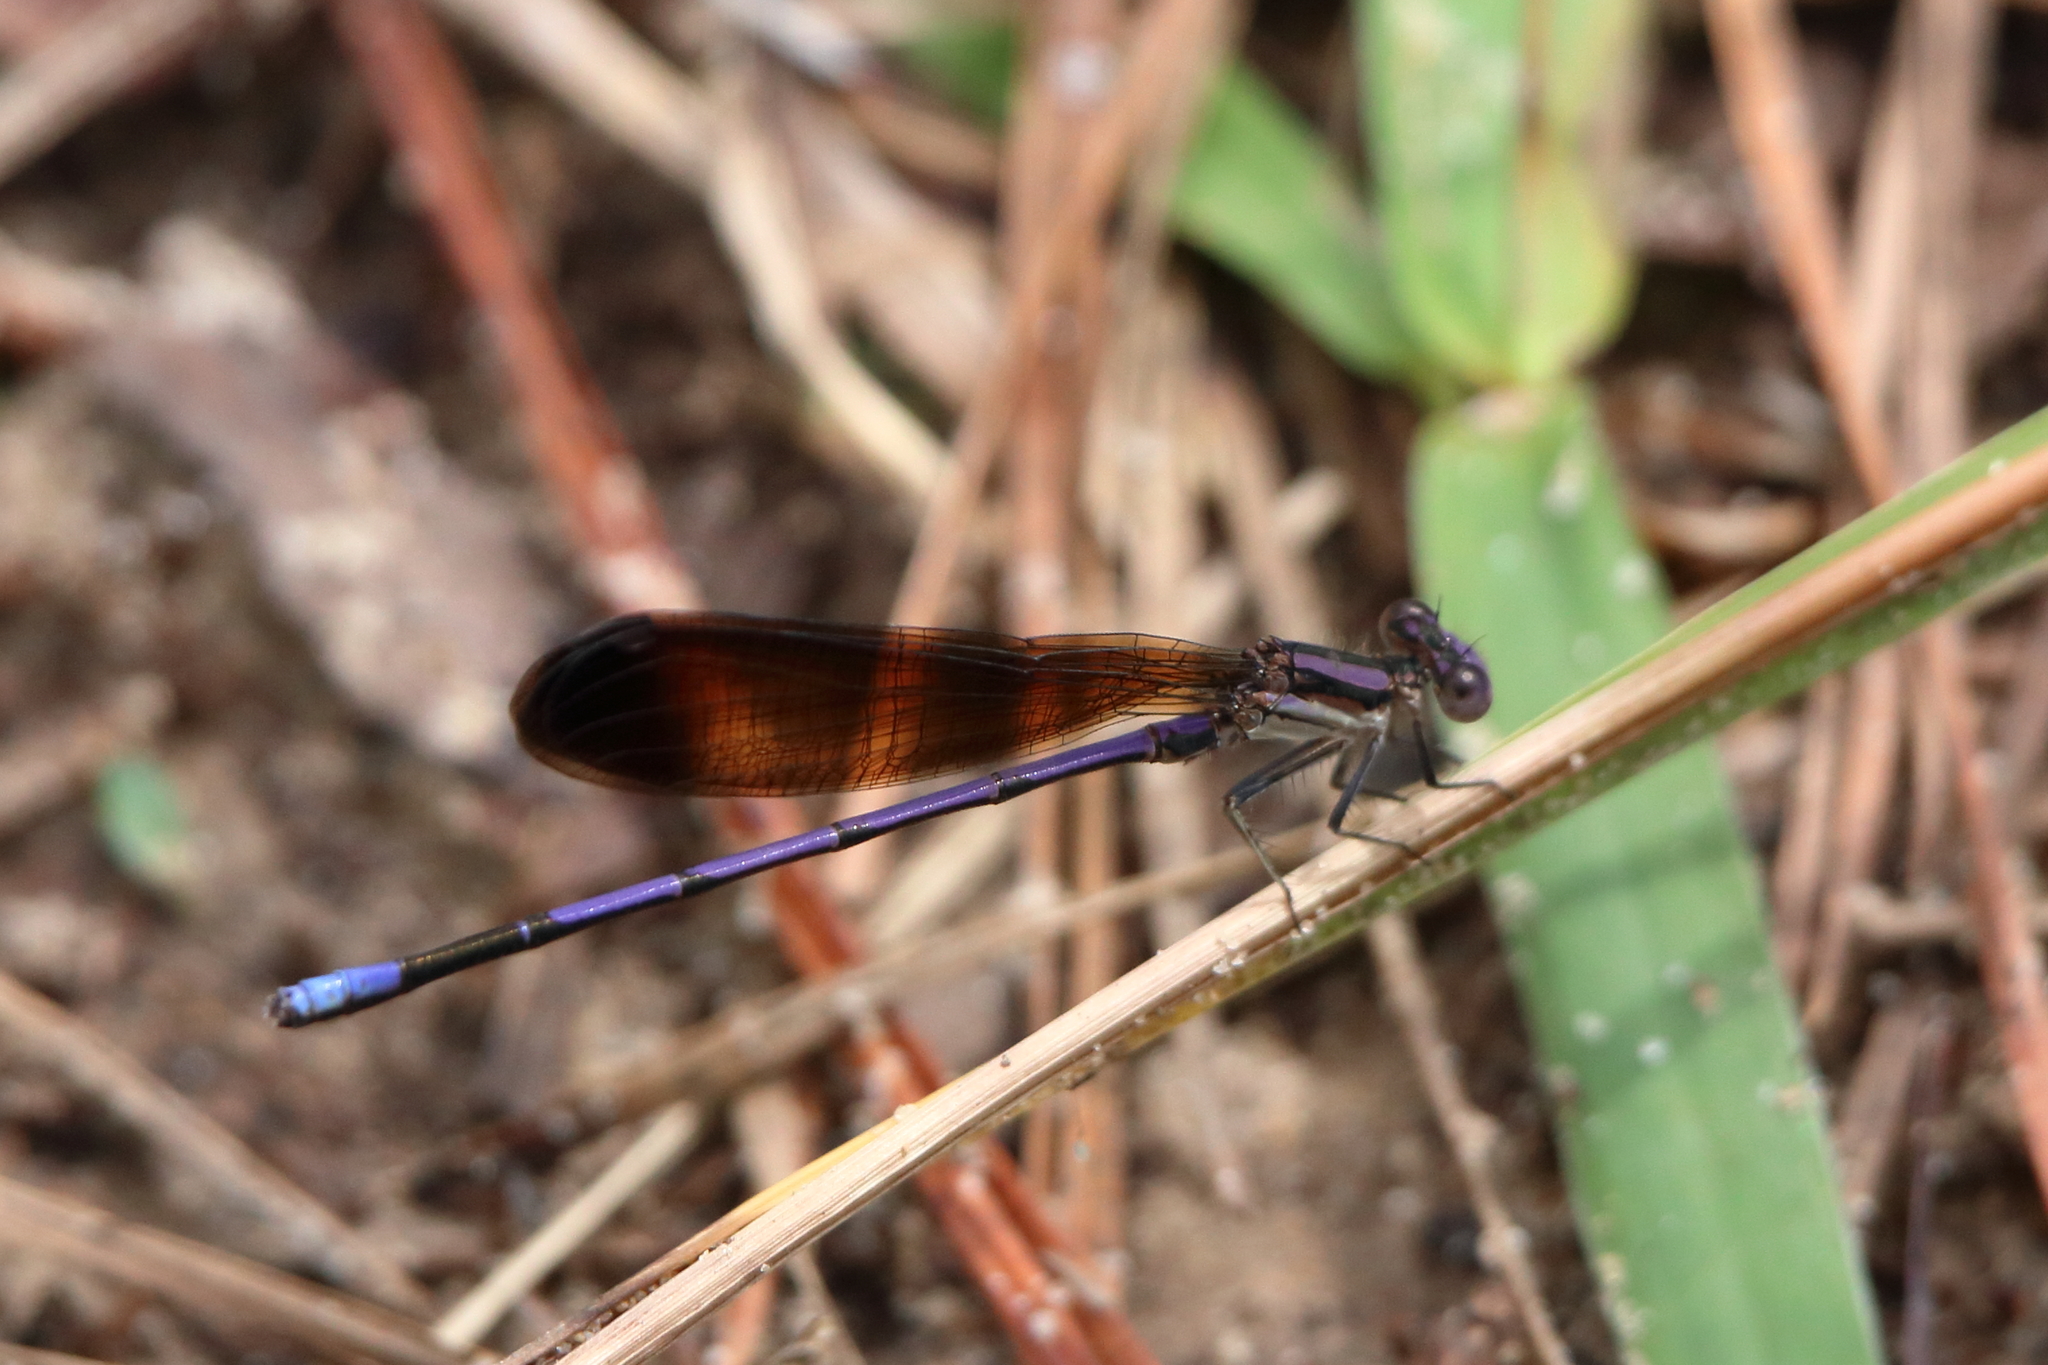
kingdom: Animalia
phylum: Arthropoda
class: Insecta
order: Odonata
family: Coenagrionidae
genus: Argia
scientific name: Argia fumipennis
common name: Variable dancer
